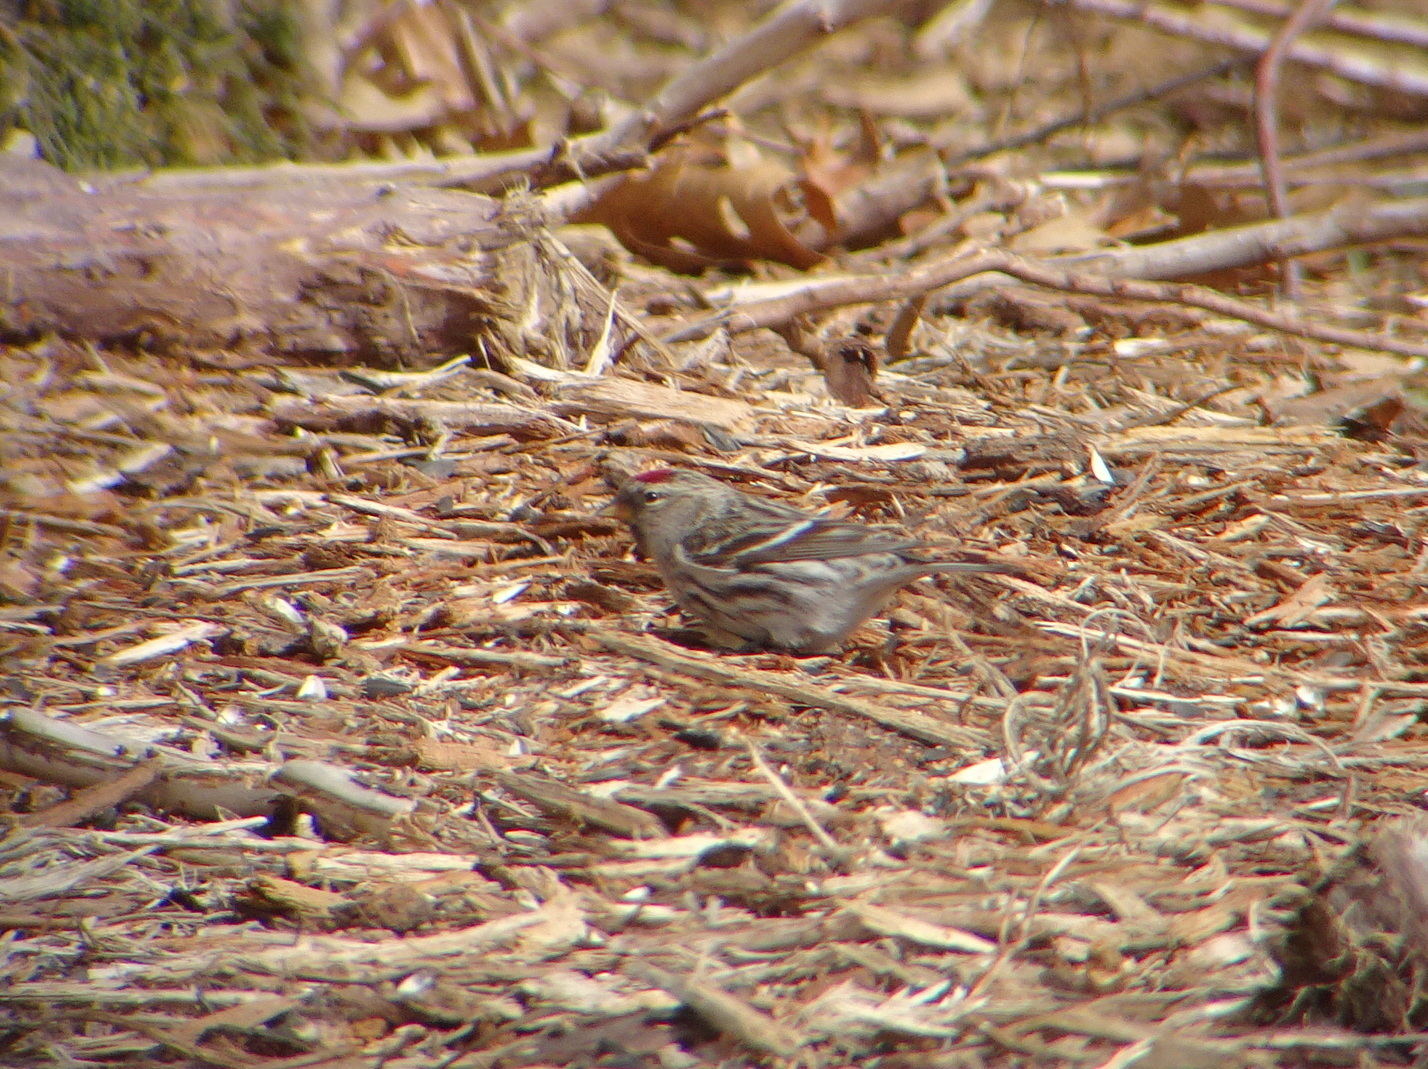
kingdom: Animalia
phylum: Chordata
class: Aves
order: Passeriformes
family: Fringillidae
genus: Acanthis
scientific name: Acanthis flammea
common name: Common redpoll
